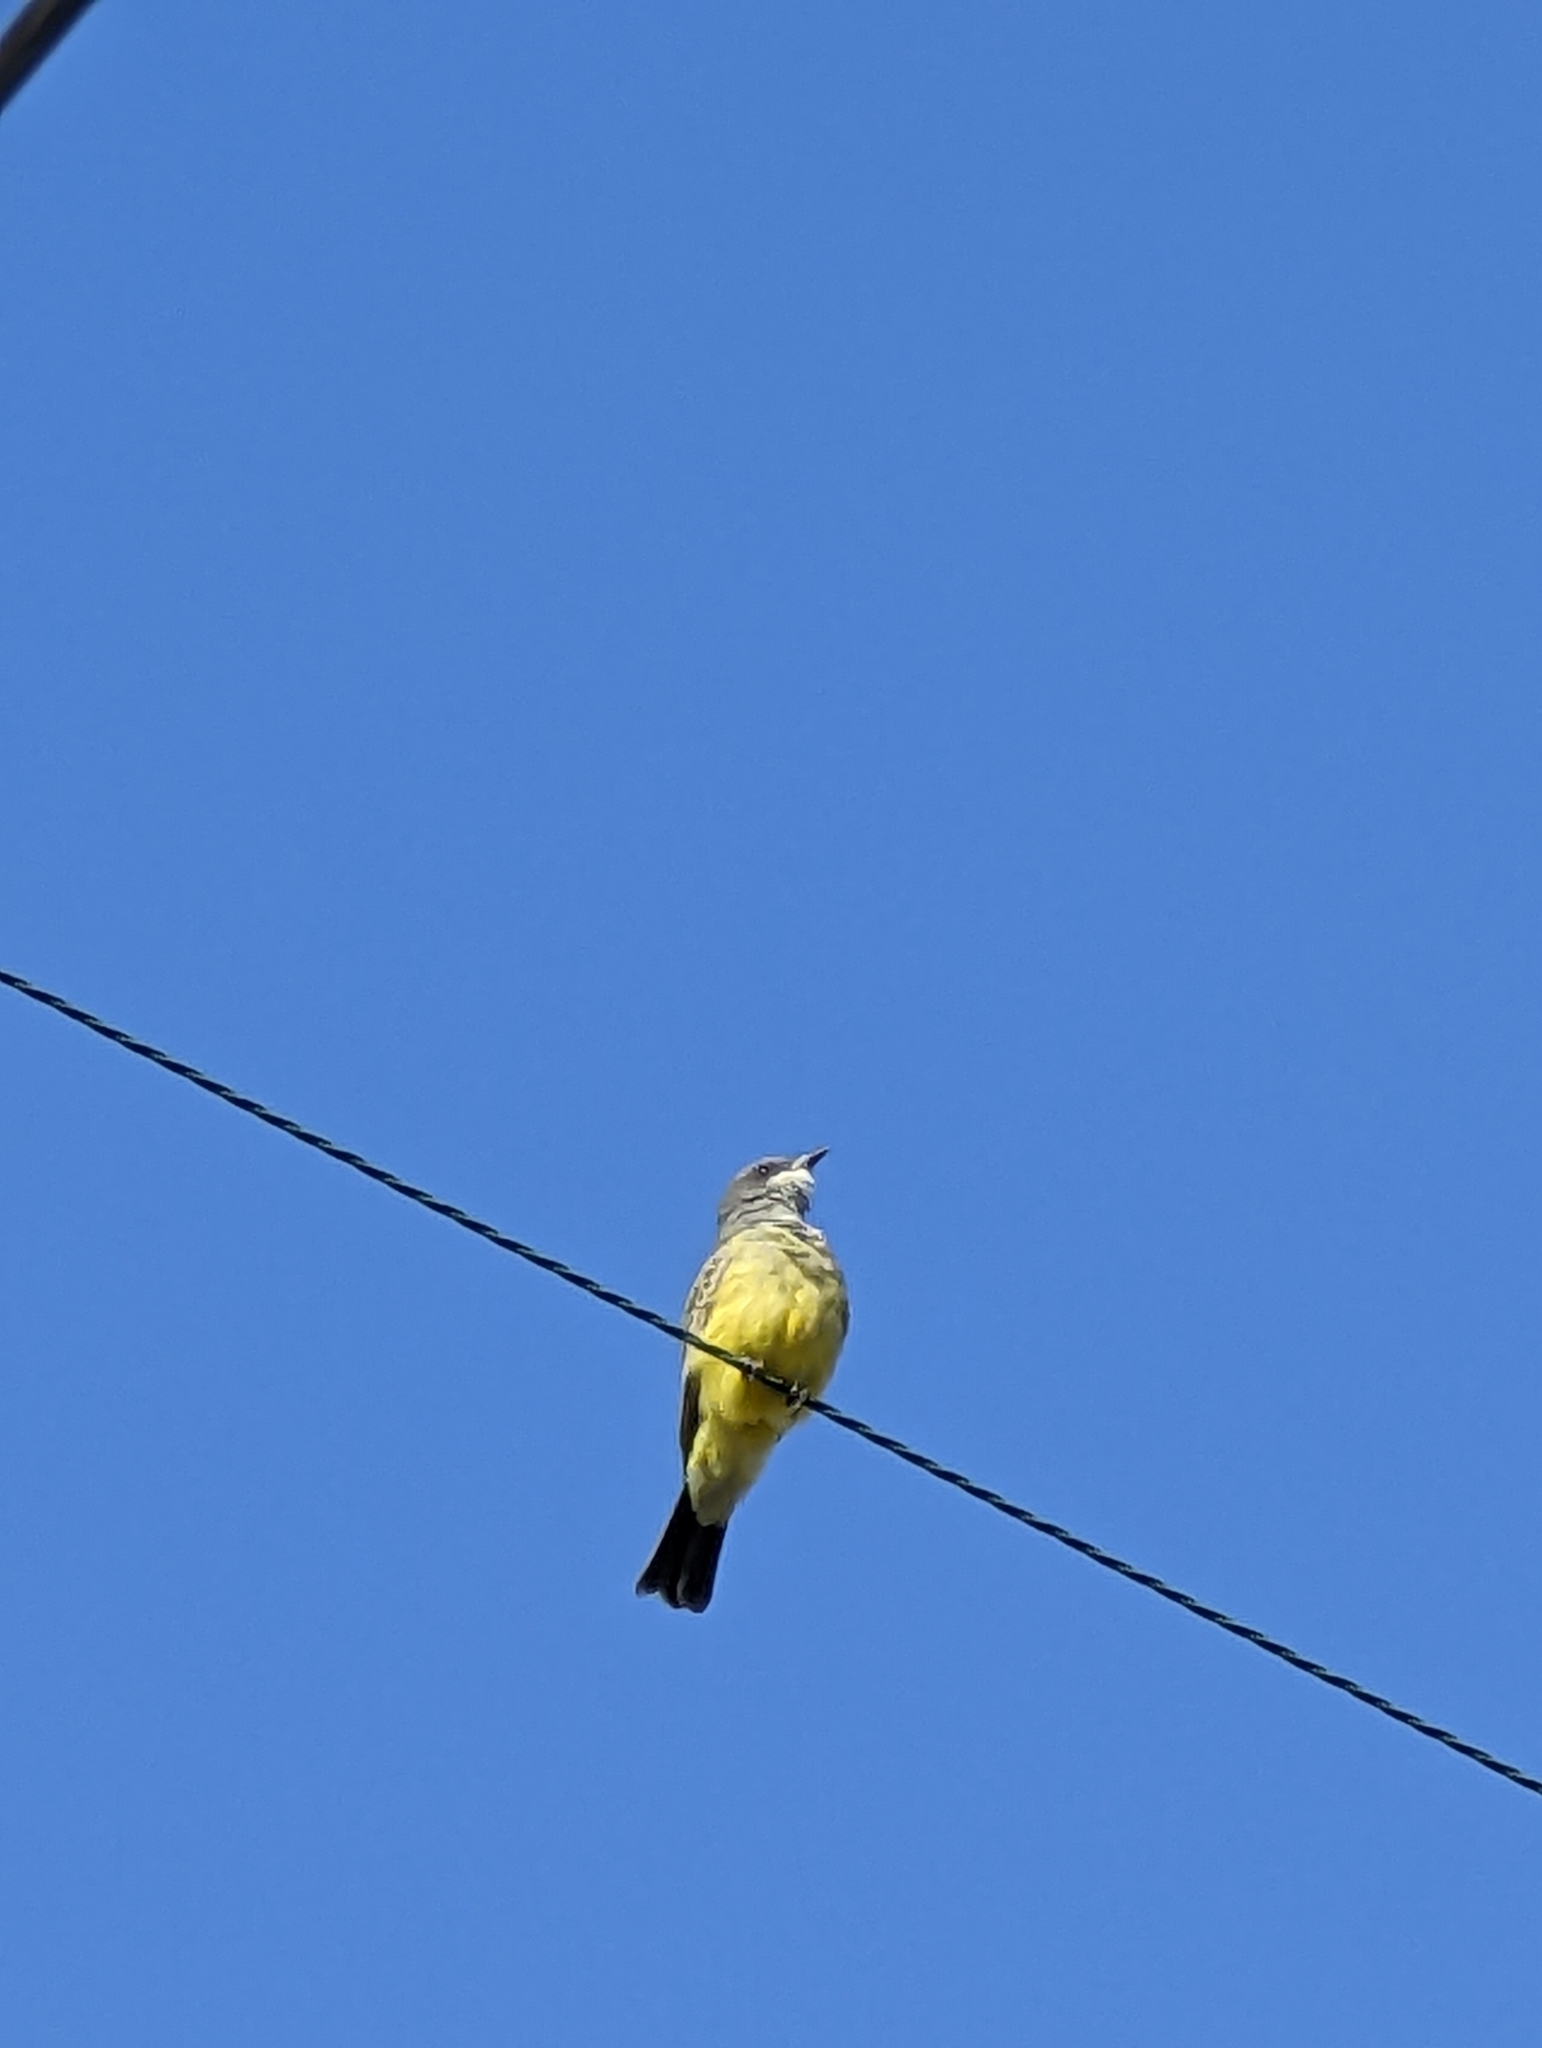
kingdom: Animalia
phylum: Chordata
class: Aves
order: Passeriformes
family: Tyrannidae
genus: Tyrannus
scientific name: Tyrannus vociferans
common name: Cassin's kingbird
